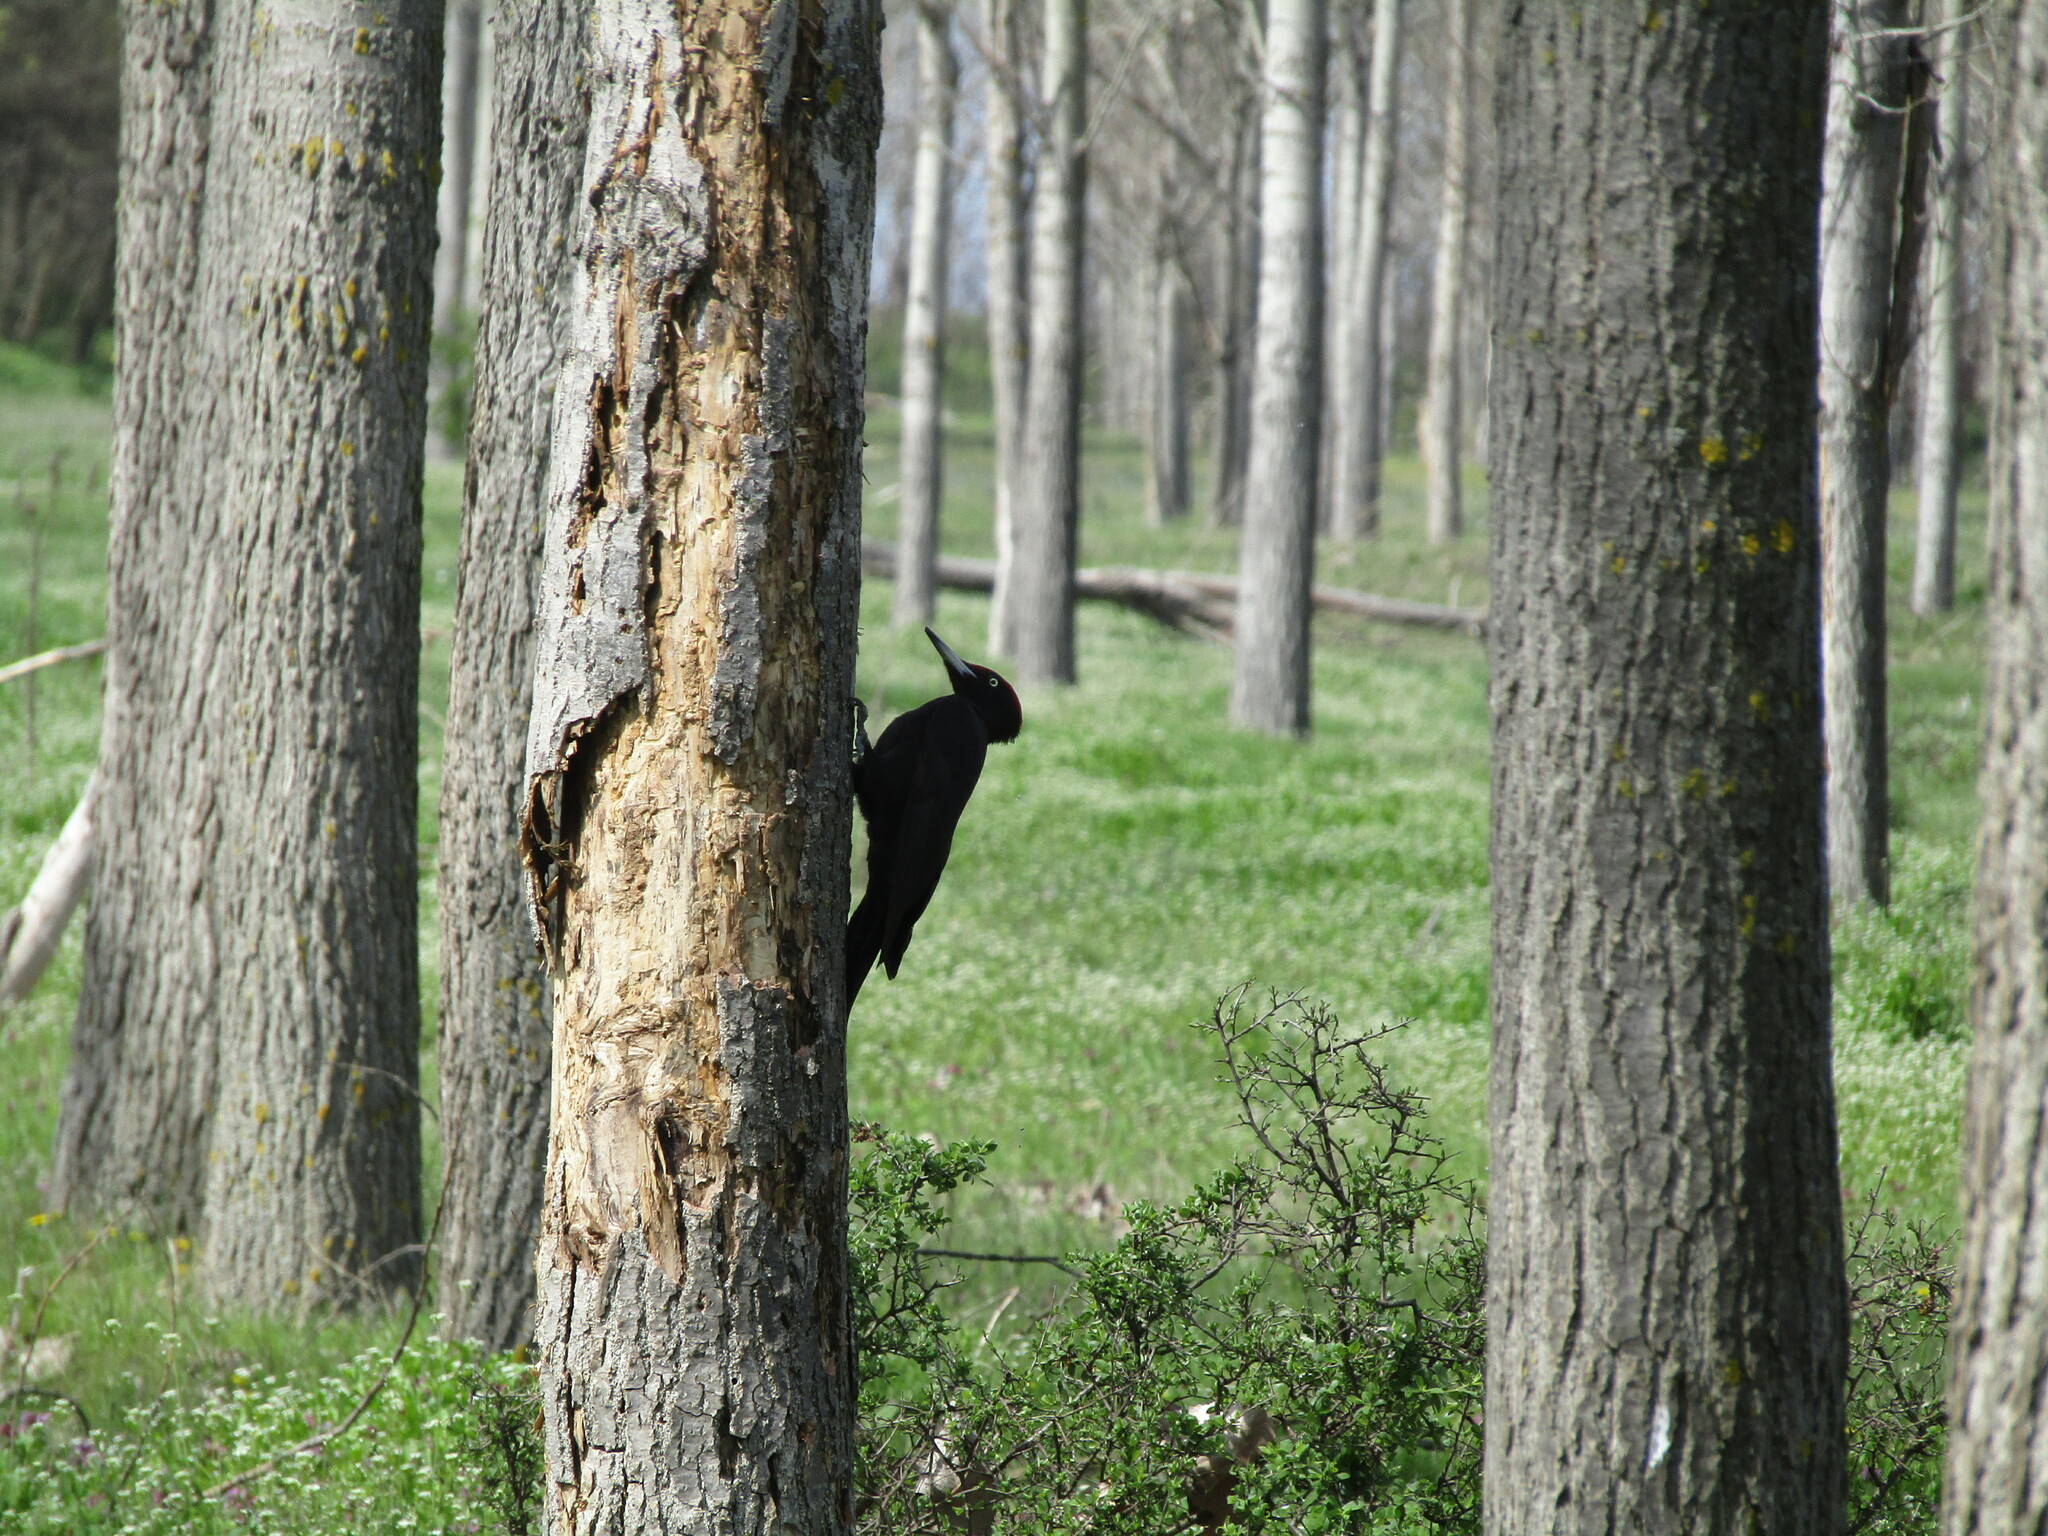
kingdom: Animalia
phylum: Chordata
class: Aves
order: Piciformes
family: Picidae
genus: Dryocopus
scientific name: Dryocopus martius
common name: Black woodpecker
